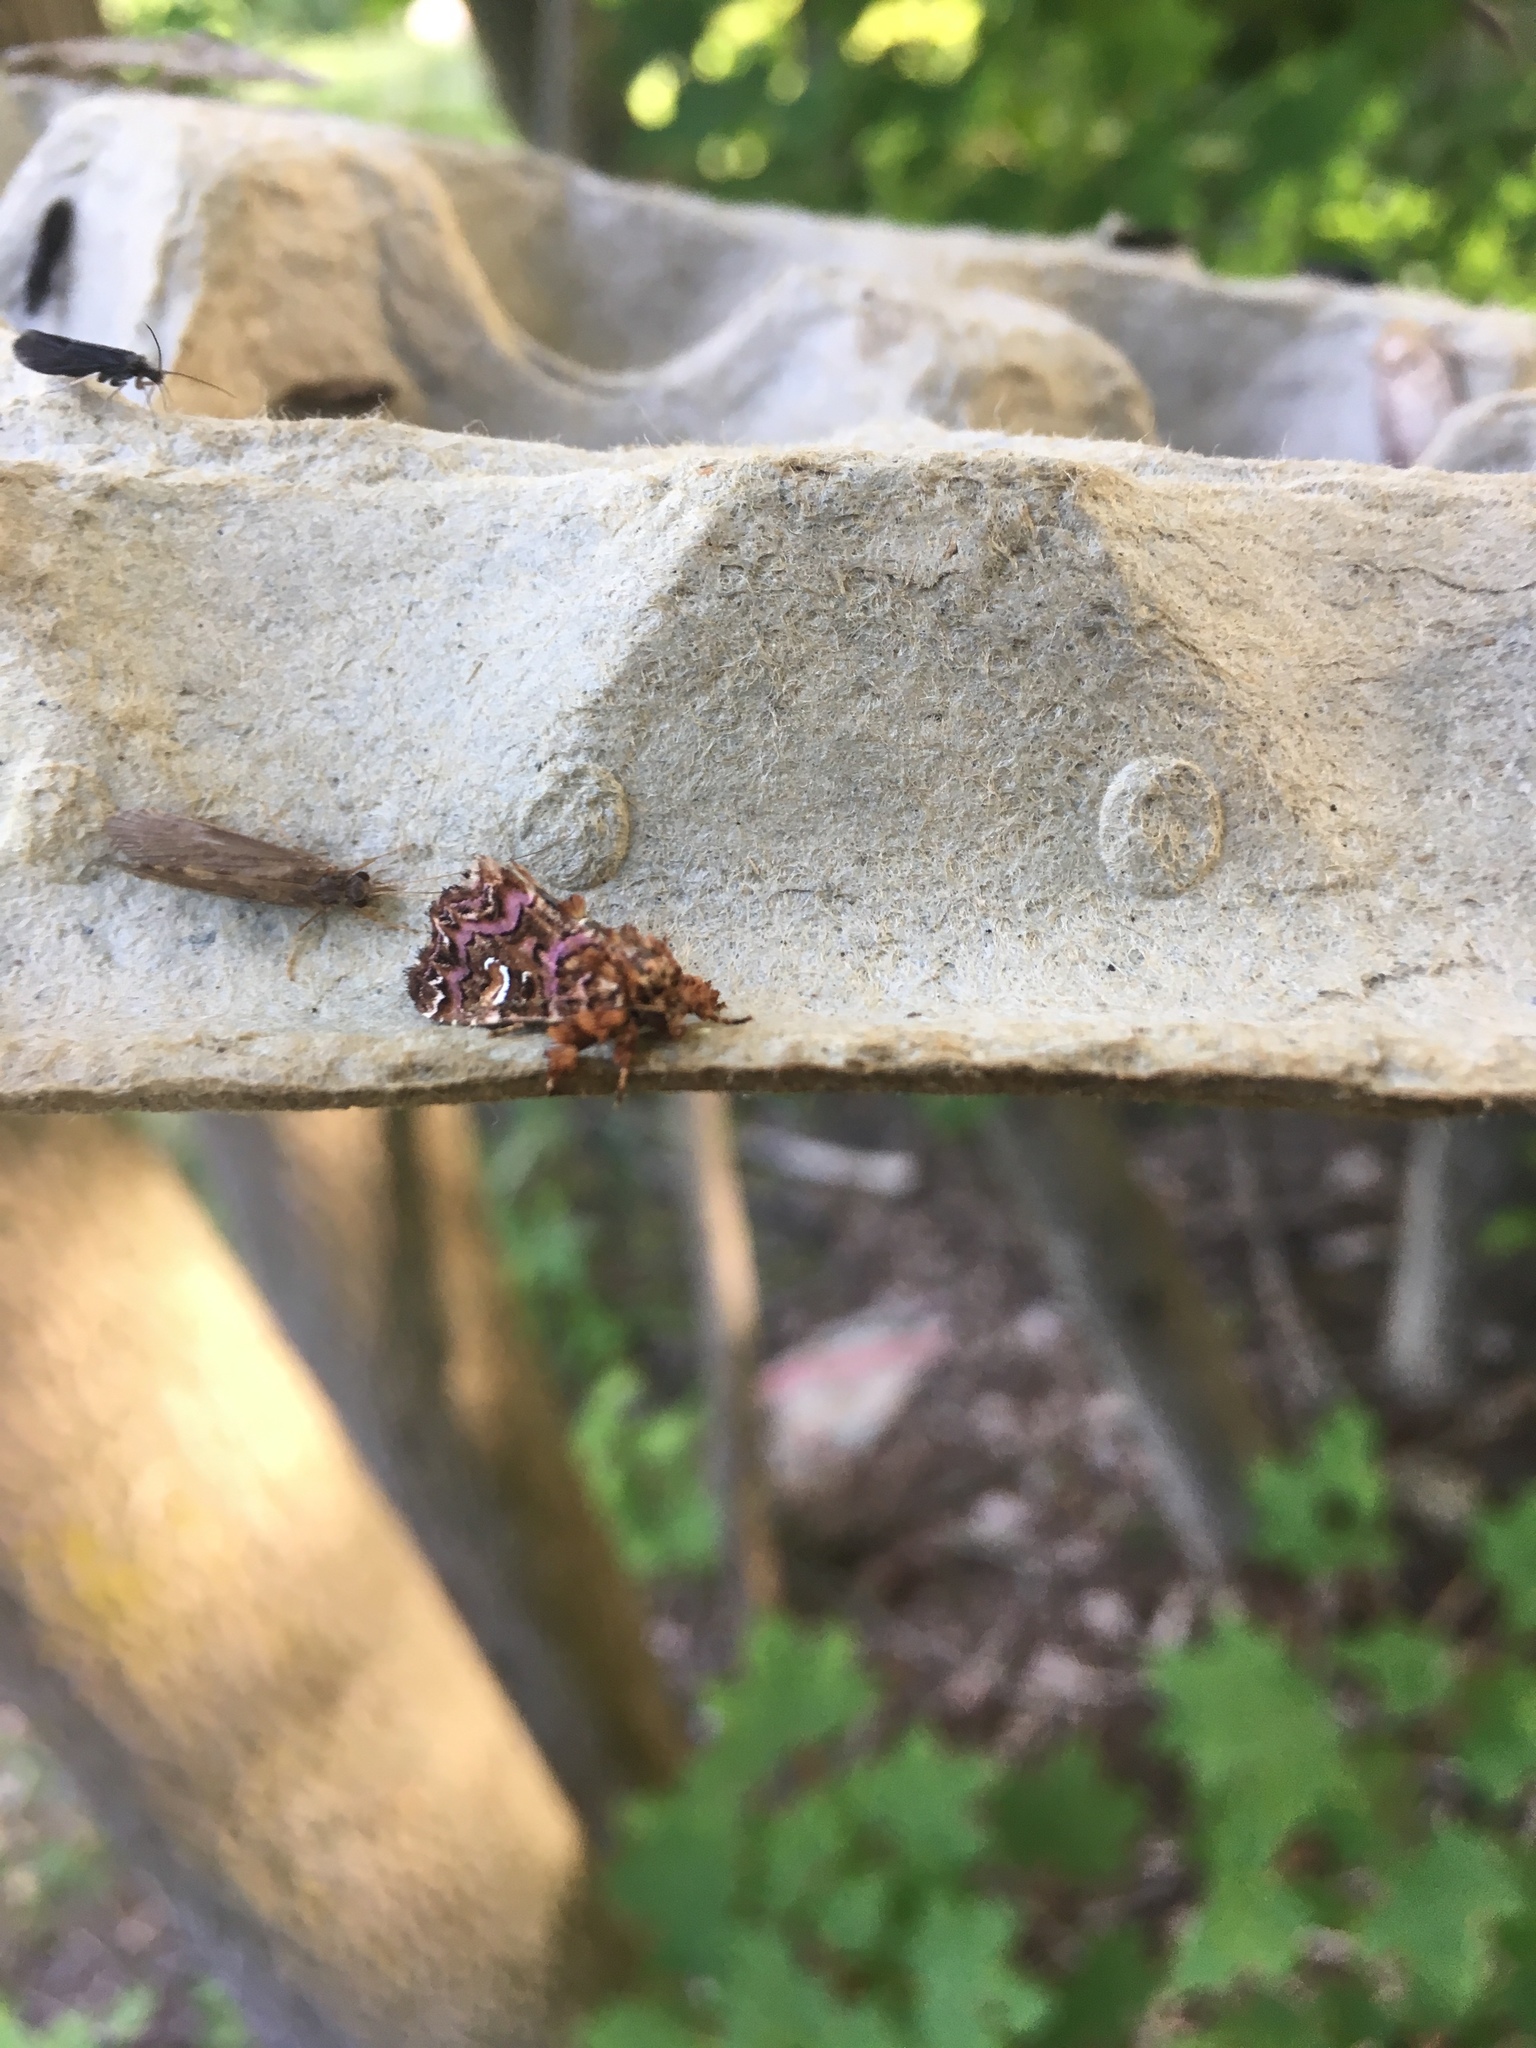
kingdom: Animalia
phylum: Arthropoda
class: Insecta
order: Lepidoptera
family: Noctuidae
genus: Callopistria
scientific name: Callopistria mollissima
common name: Pink-shaded fern moth
